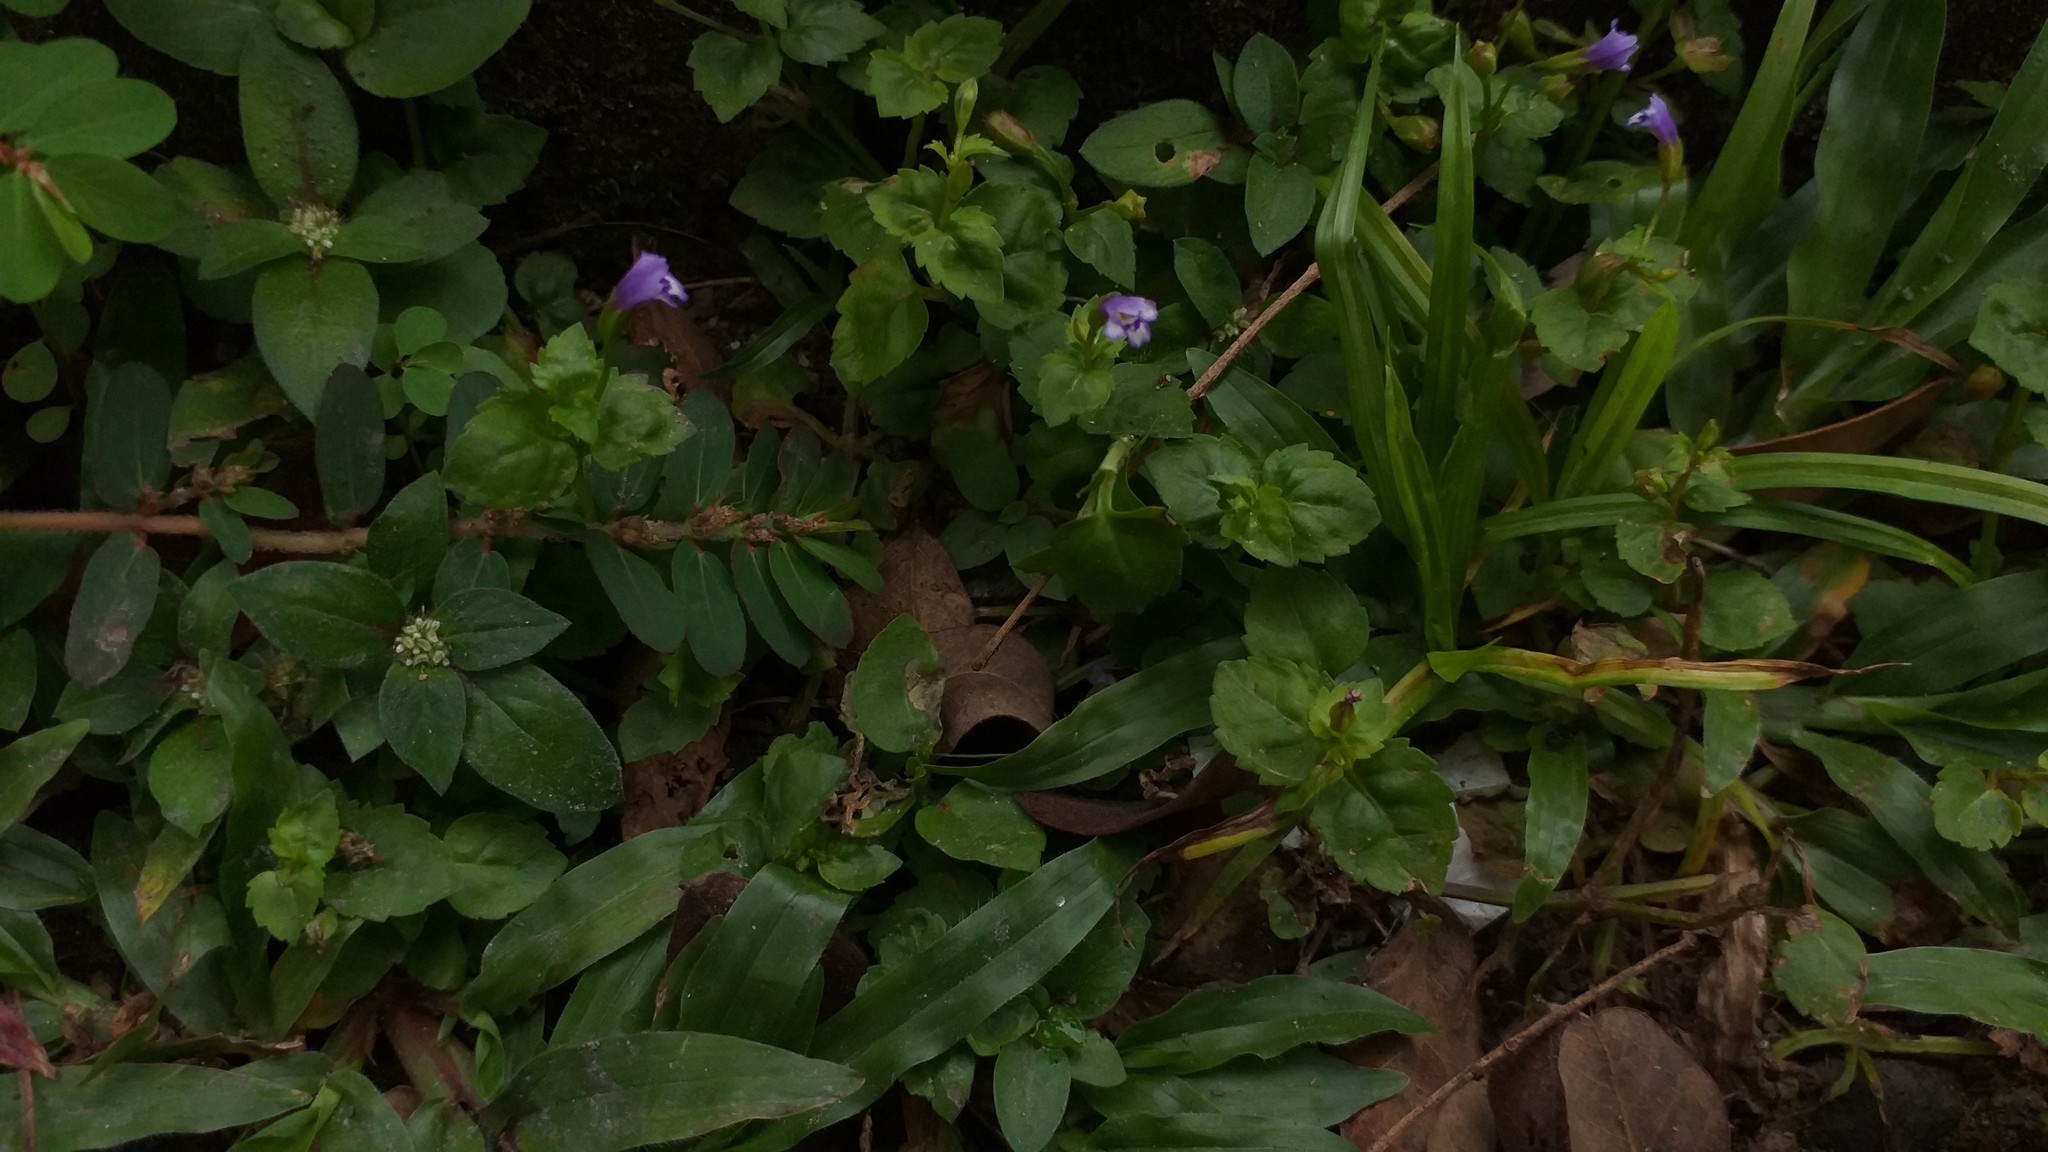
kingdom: Plantae
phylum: Tracheophyta
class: Magnoliopsida
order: Lamiales
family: Linderniaceae
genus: Torenia
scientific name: Torenia crustacea
